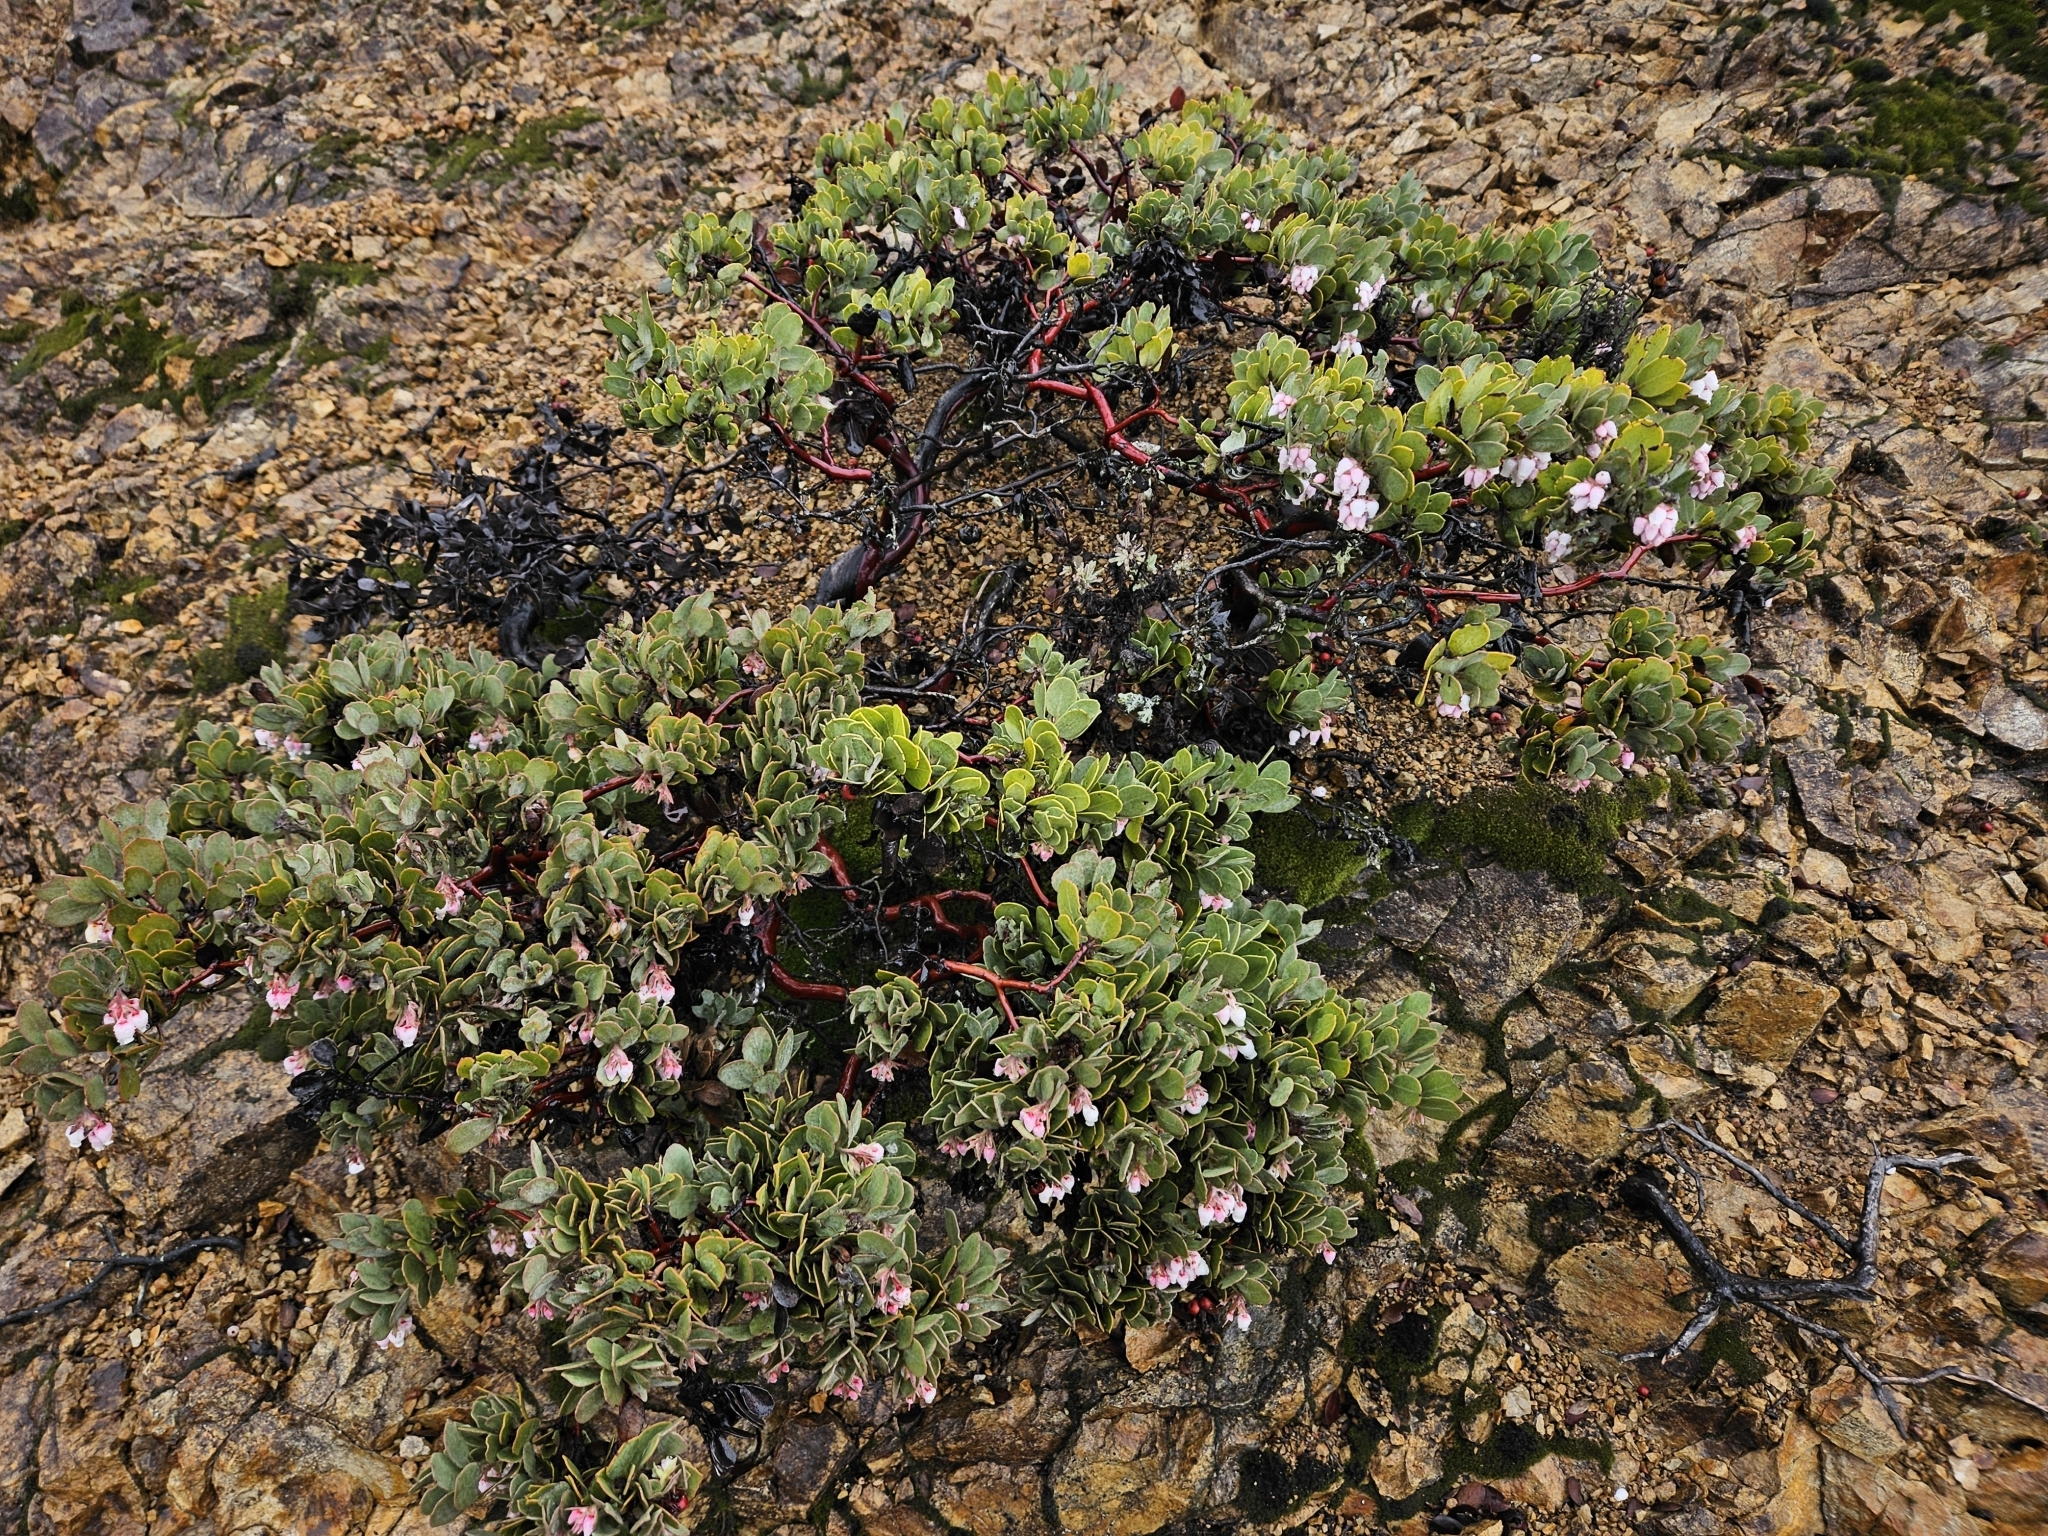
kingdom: Plantae
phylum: Tracheophyta
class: Magnoliopsida
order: Ericales
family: Ericaceae
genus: Arctostaphylos
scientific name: Arctostaphylos canescens
